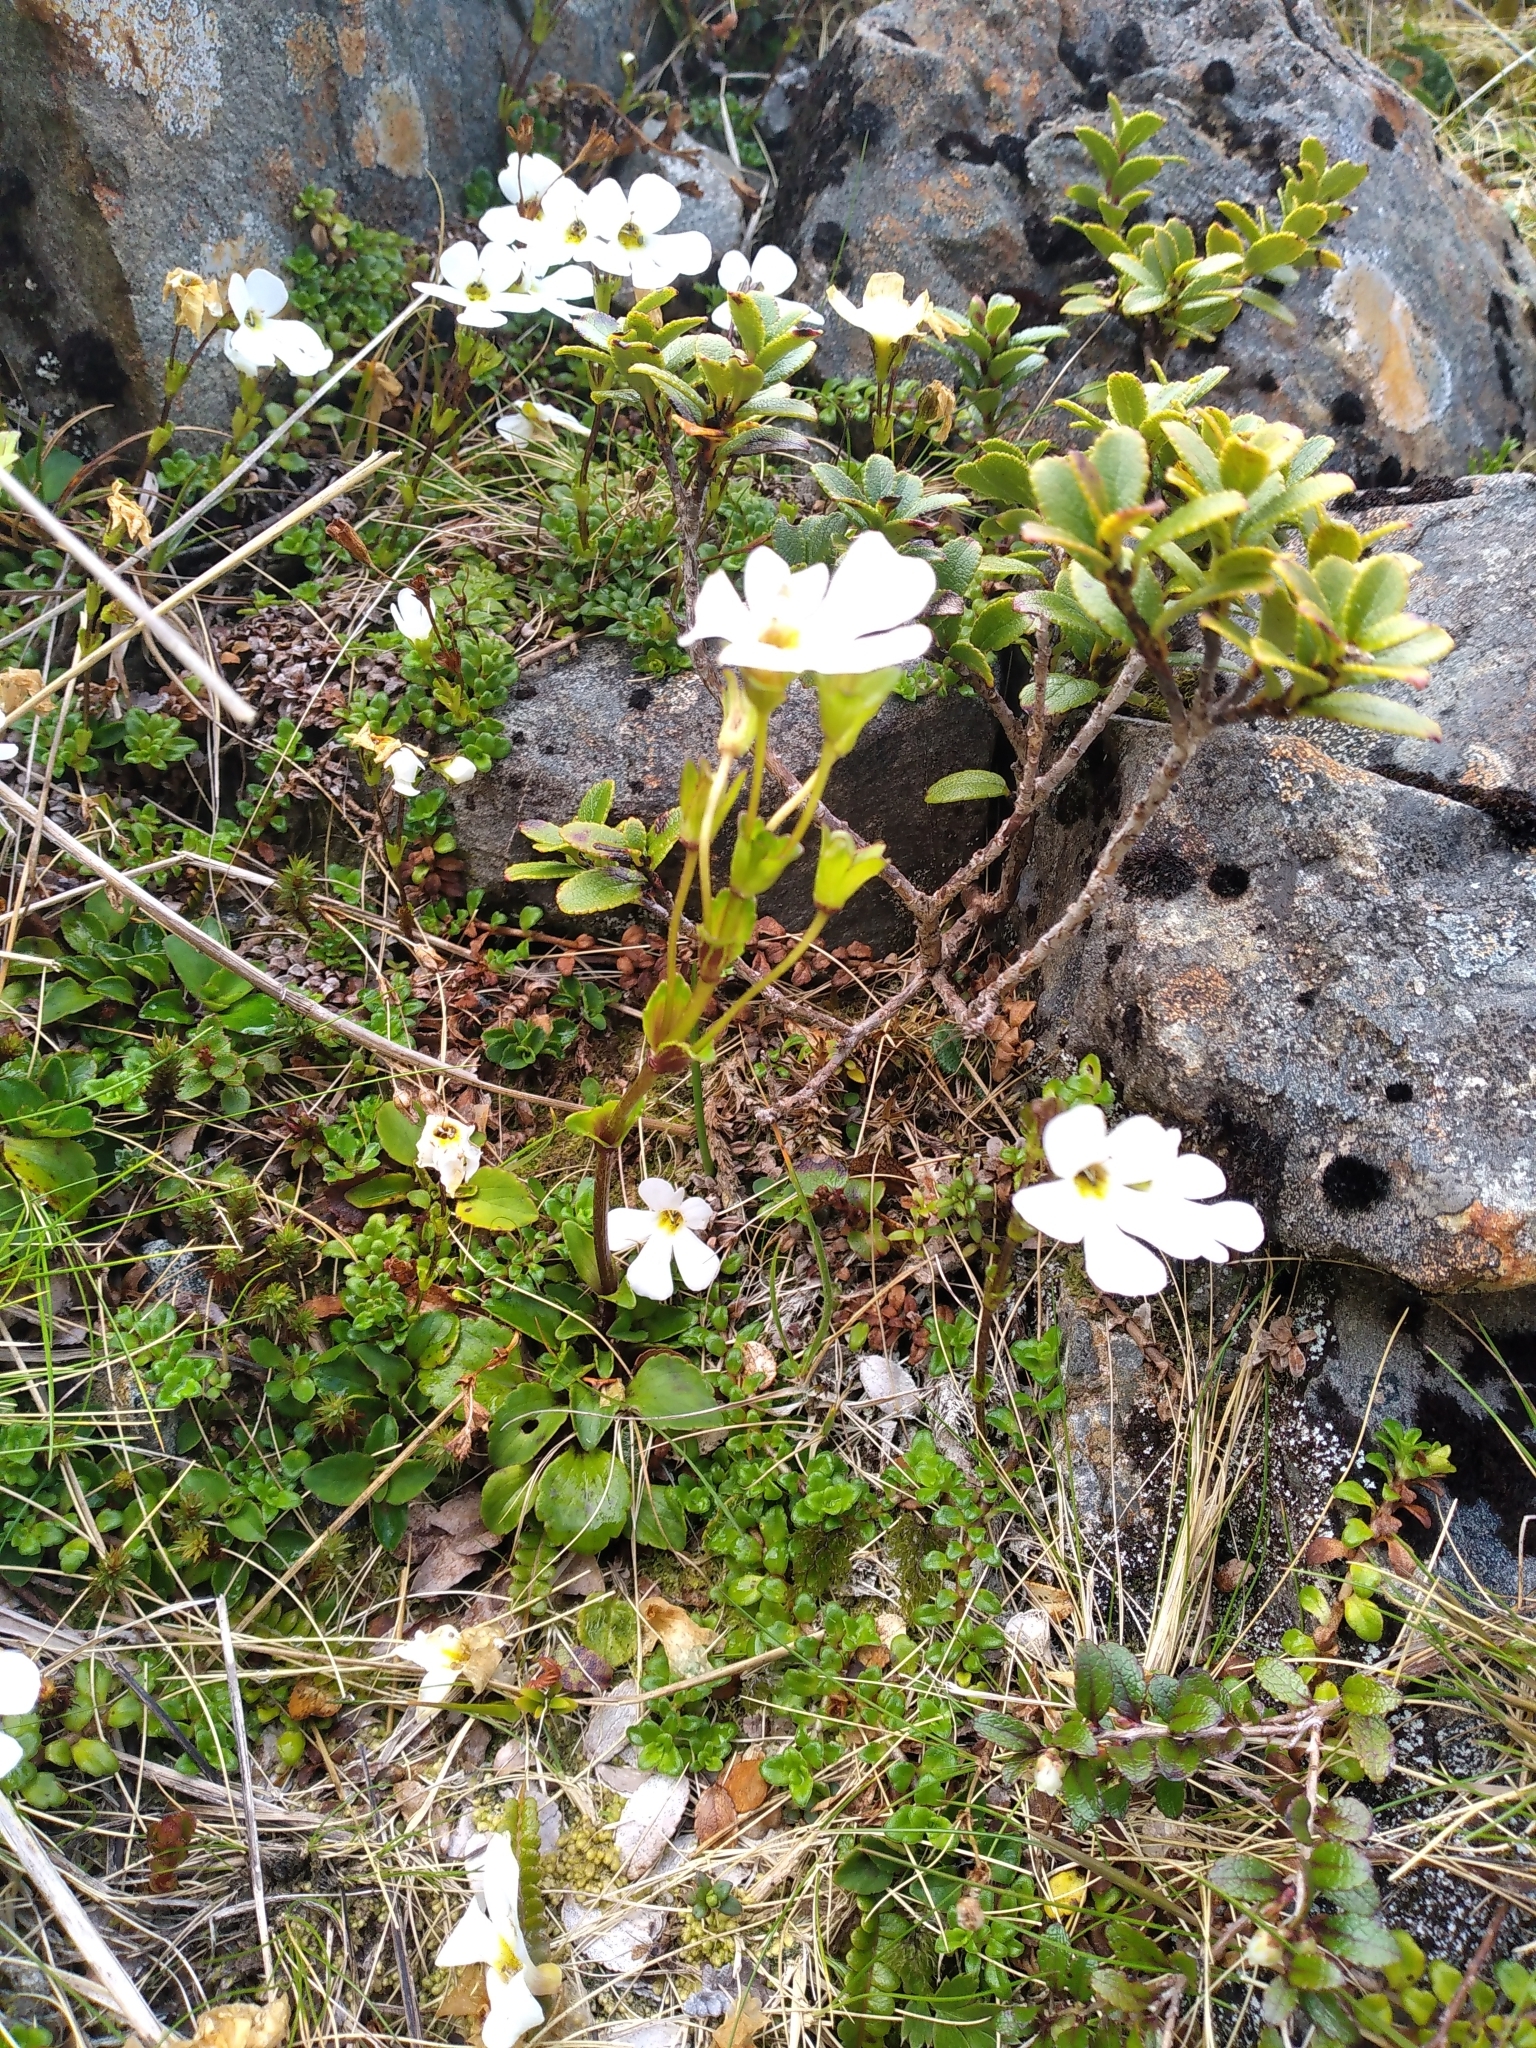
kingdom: Plantae
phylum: Tracheophyta
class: Magnoliopsida
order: Lamiales
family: Plantaginaceae
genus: Ourisia
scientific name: Ourisia calycina
